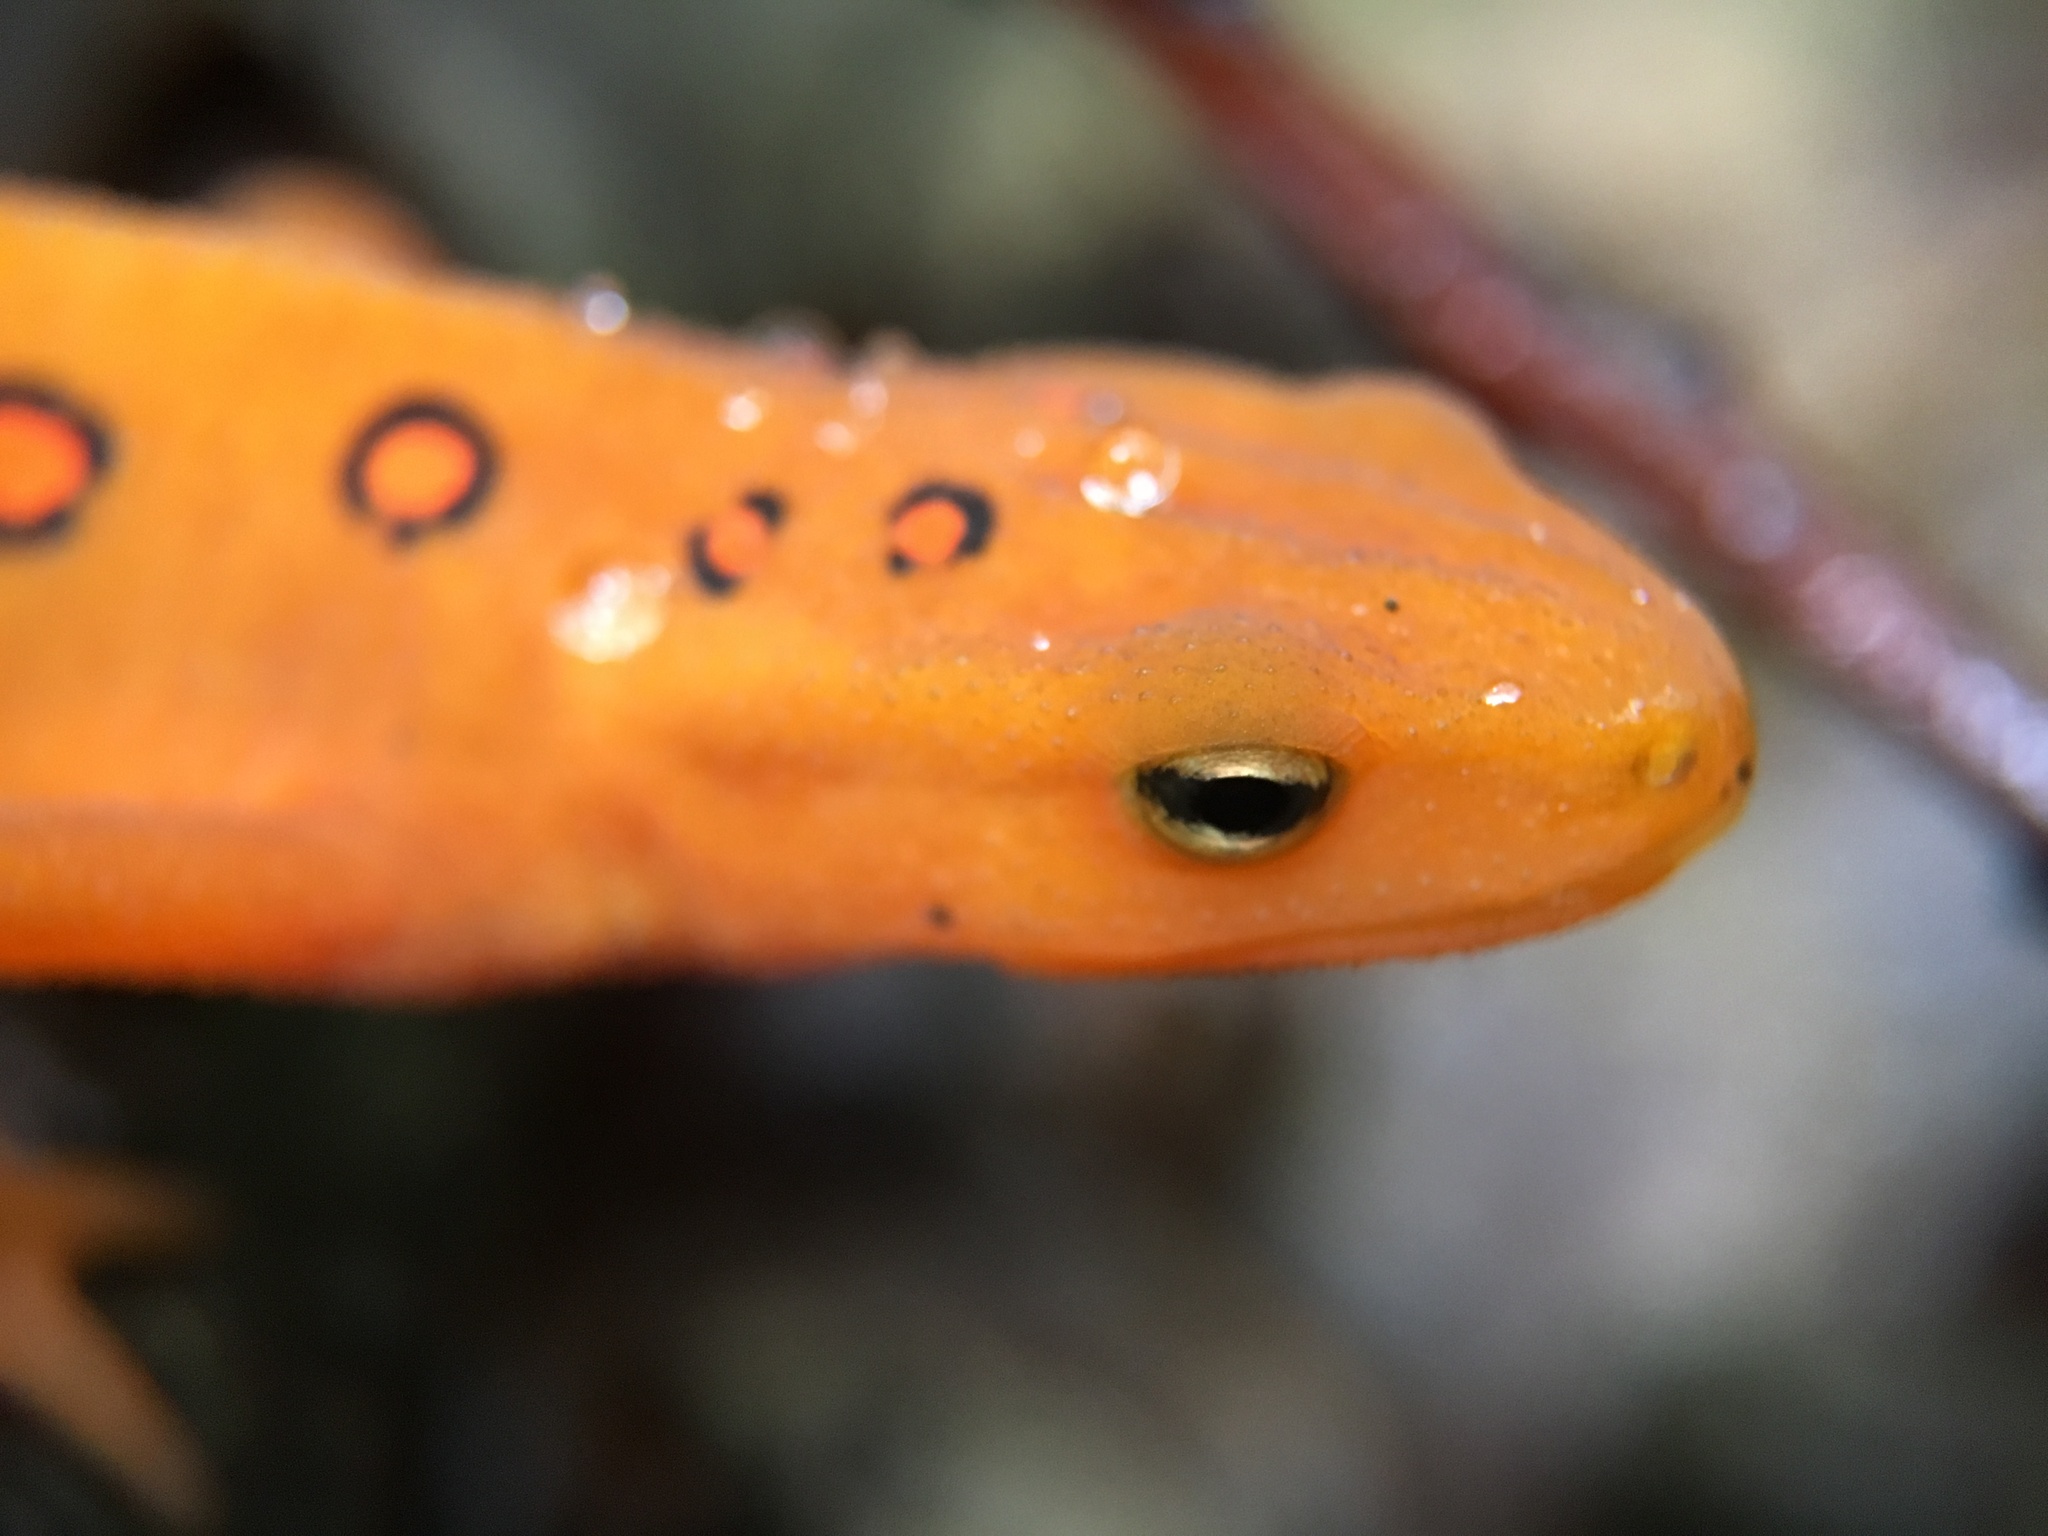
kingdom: Animalia
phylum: Chordata
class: Amphibia
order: Caudata
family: Salamandridae
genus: Notophthalmus
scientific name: Notophthalmus viridescens
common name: Eastern newt
